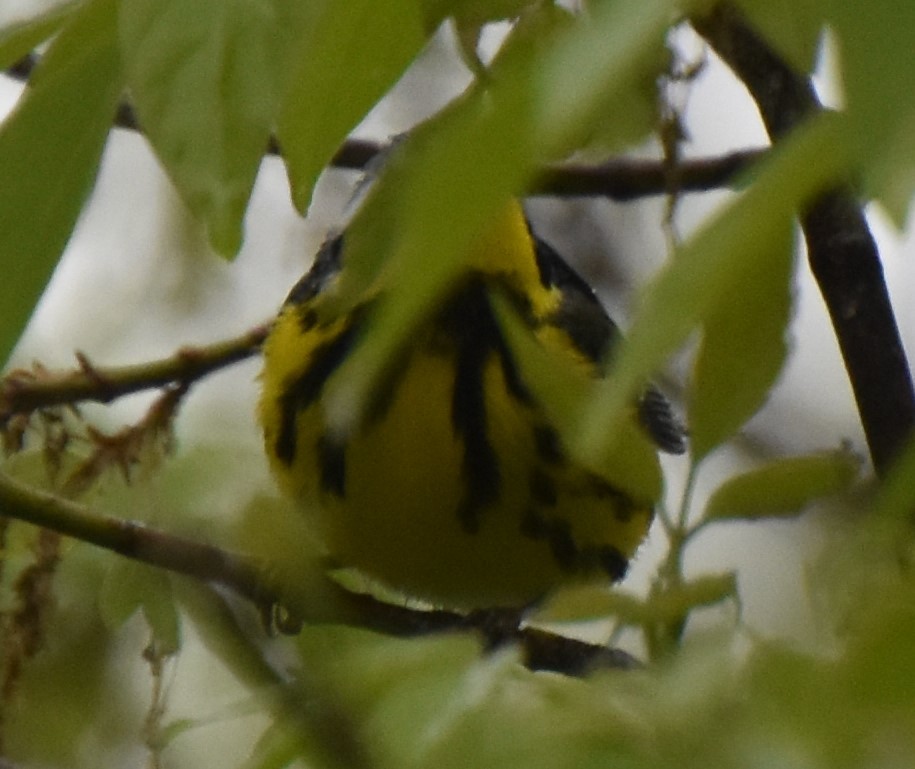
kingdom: Animalia
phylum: Chordata
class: Aves
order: Passeriformes
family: Parulidae
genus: Setophaga
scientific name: Setophaga magnolia
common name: Magnolia warbler
